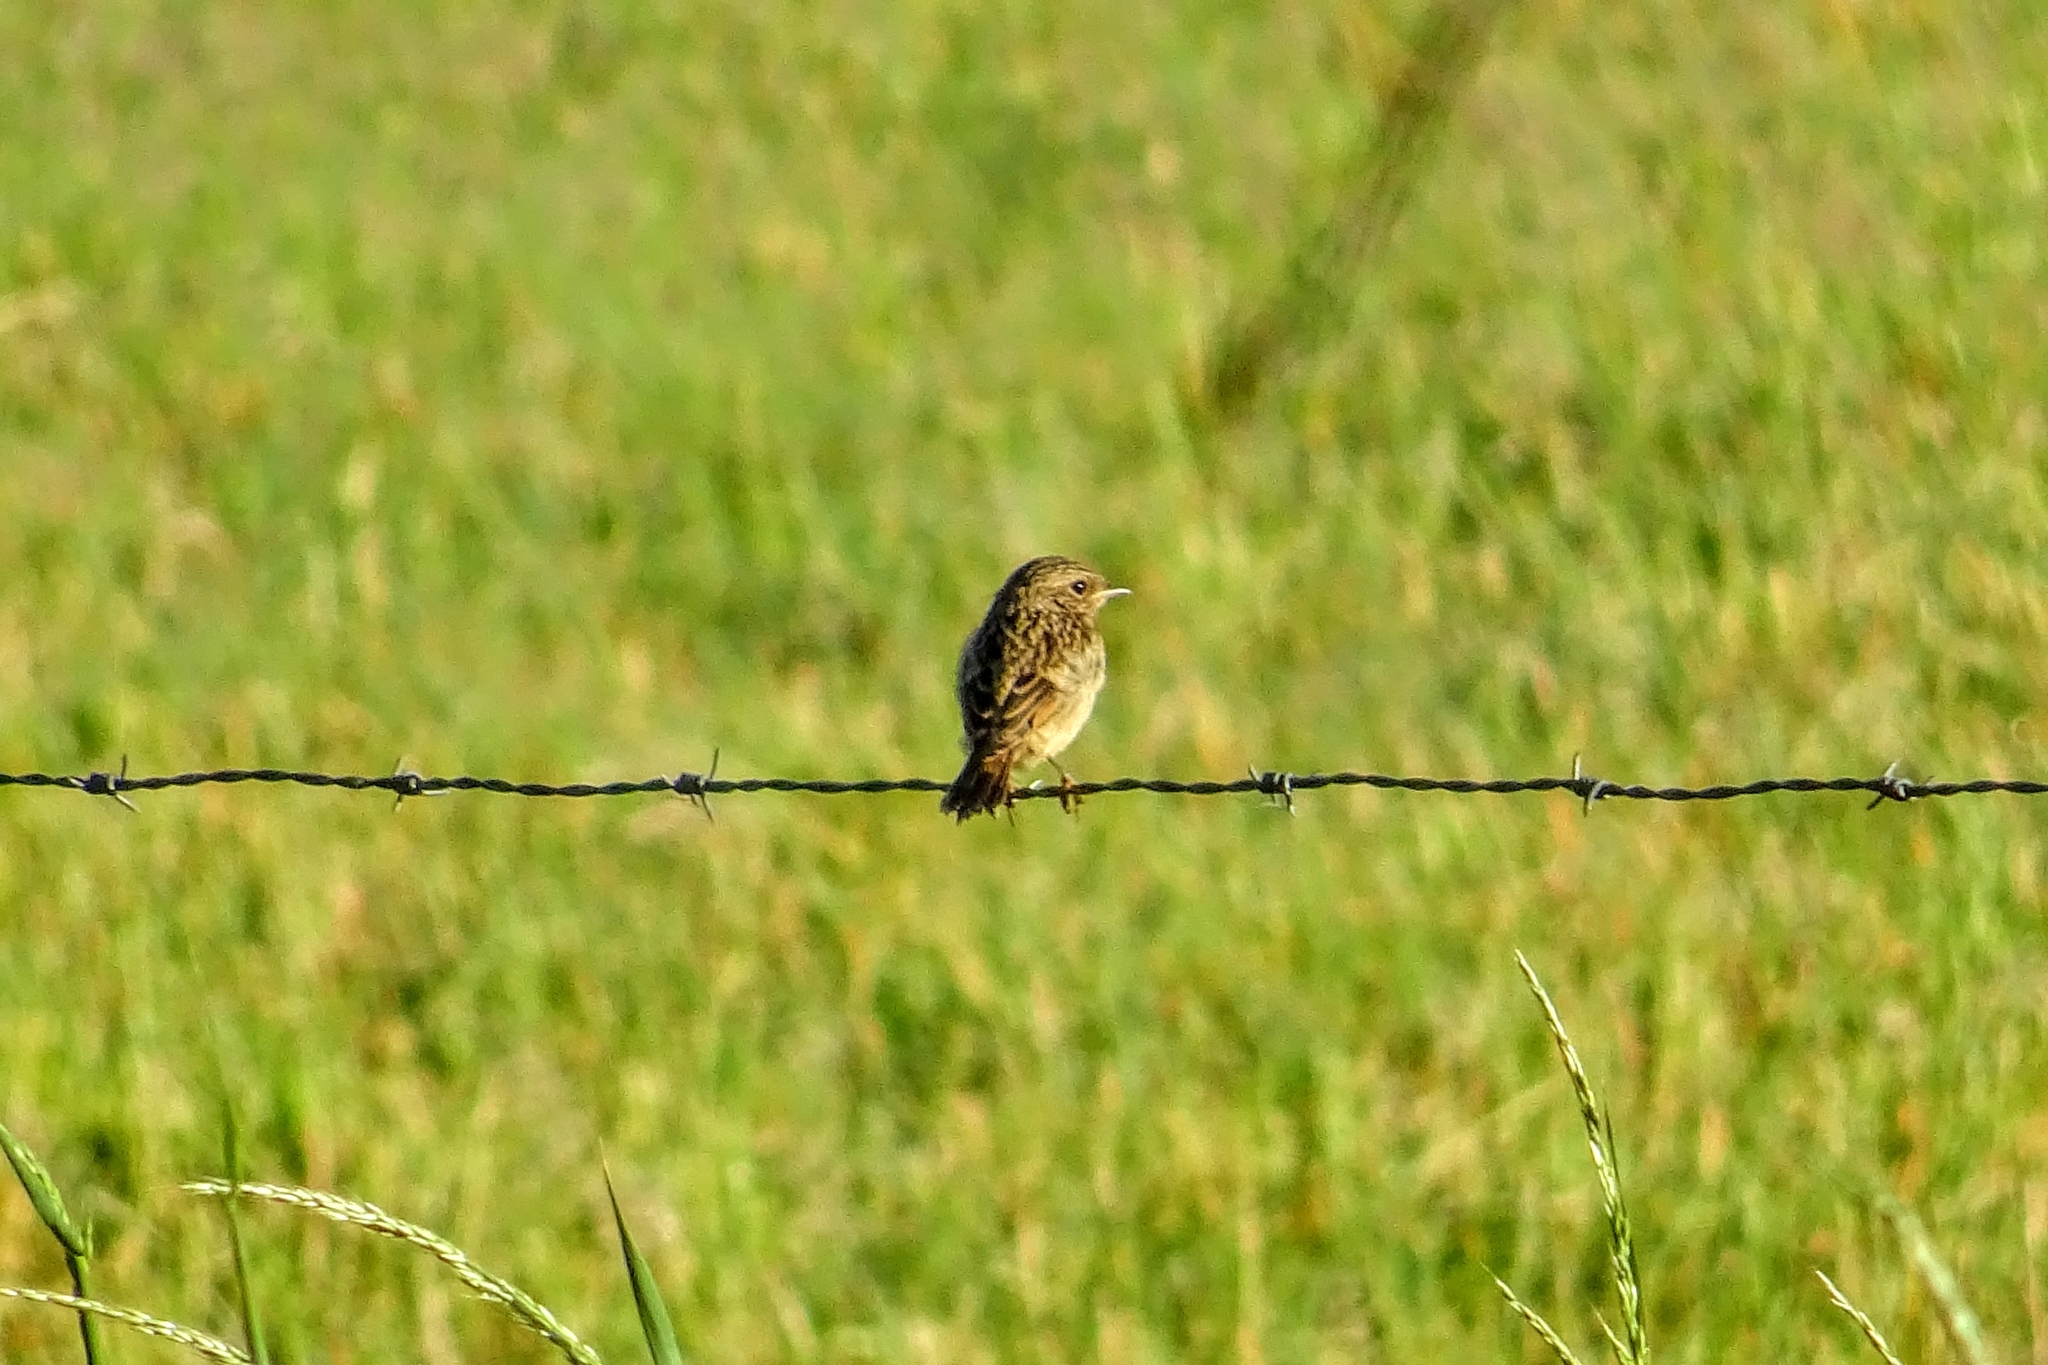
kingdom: Animalia
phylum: Chordata
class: Aves
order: Passeriformes
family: Muscicapidae
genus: Saxicola
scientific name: Saxicola rubicola
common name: European stonechat
